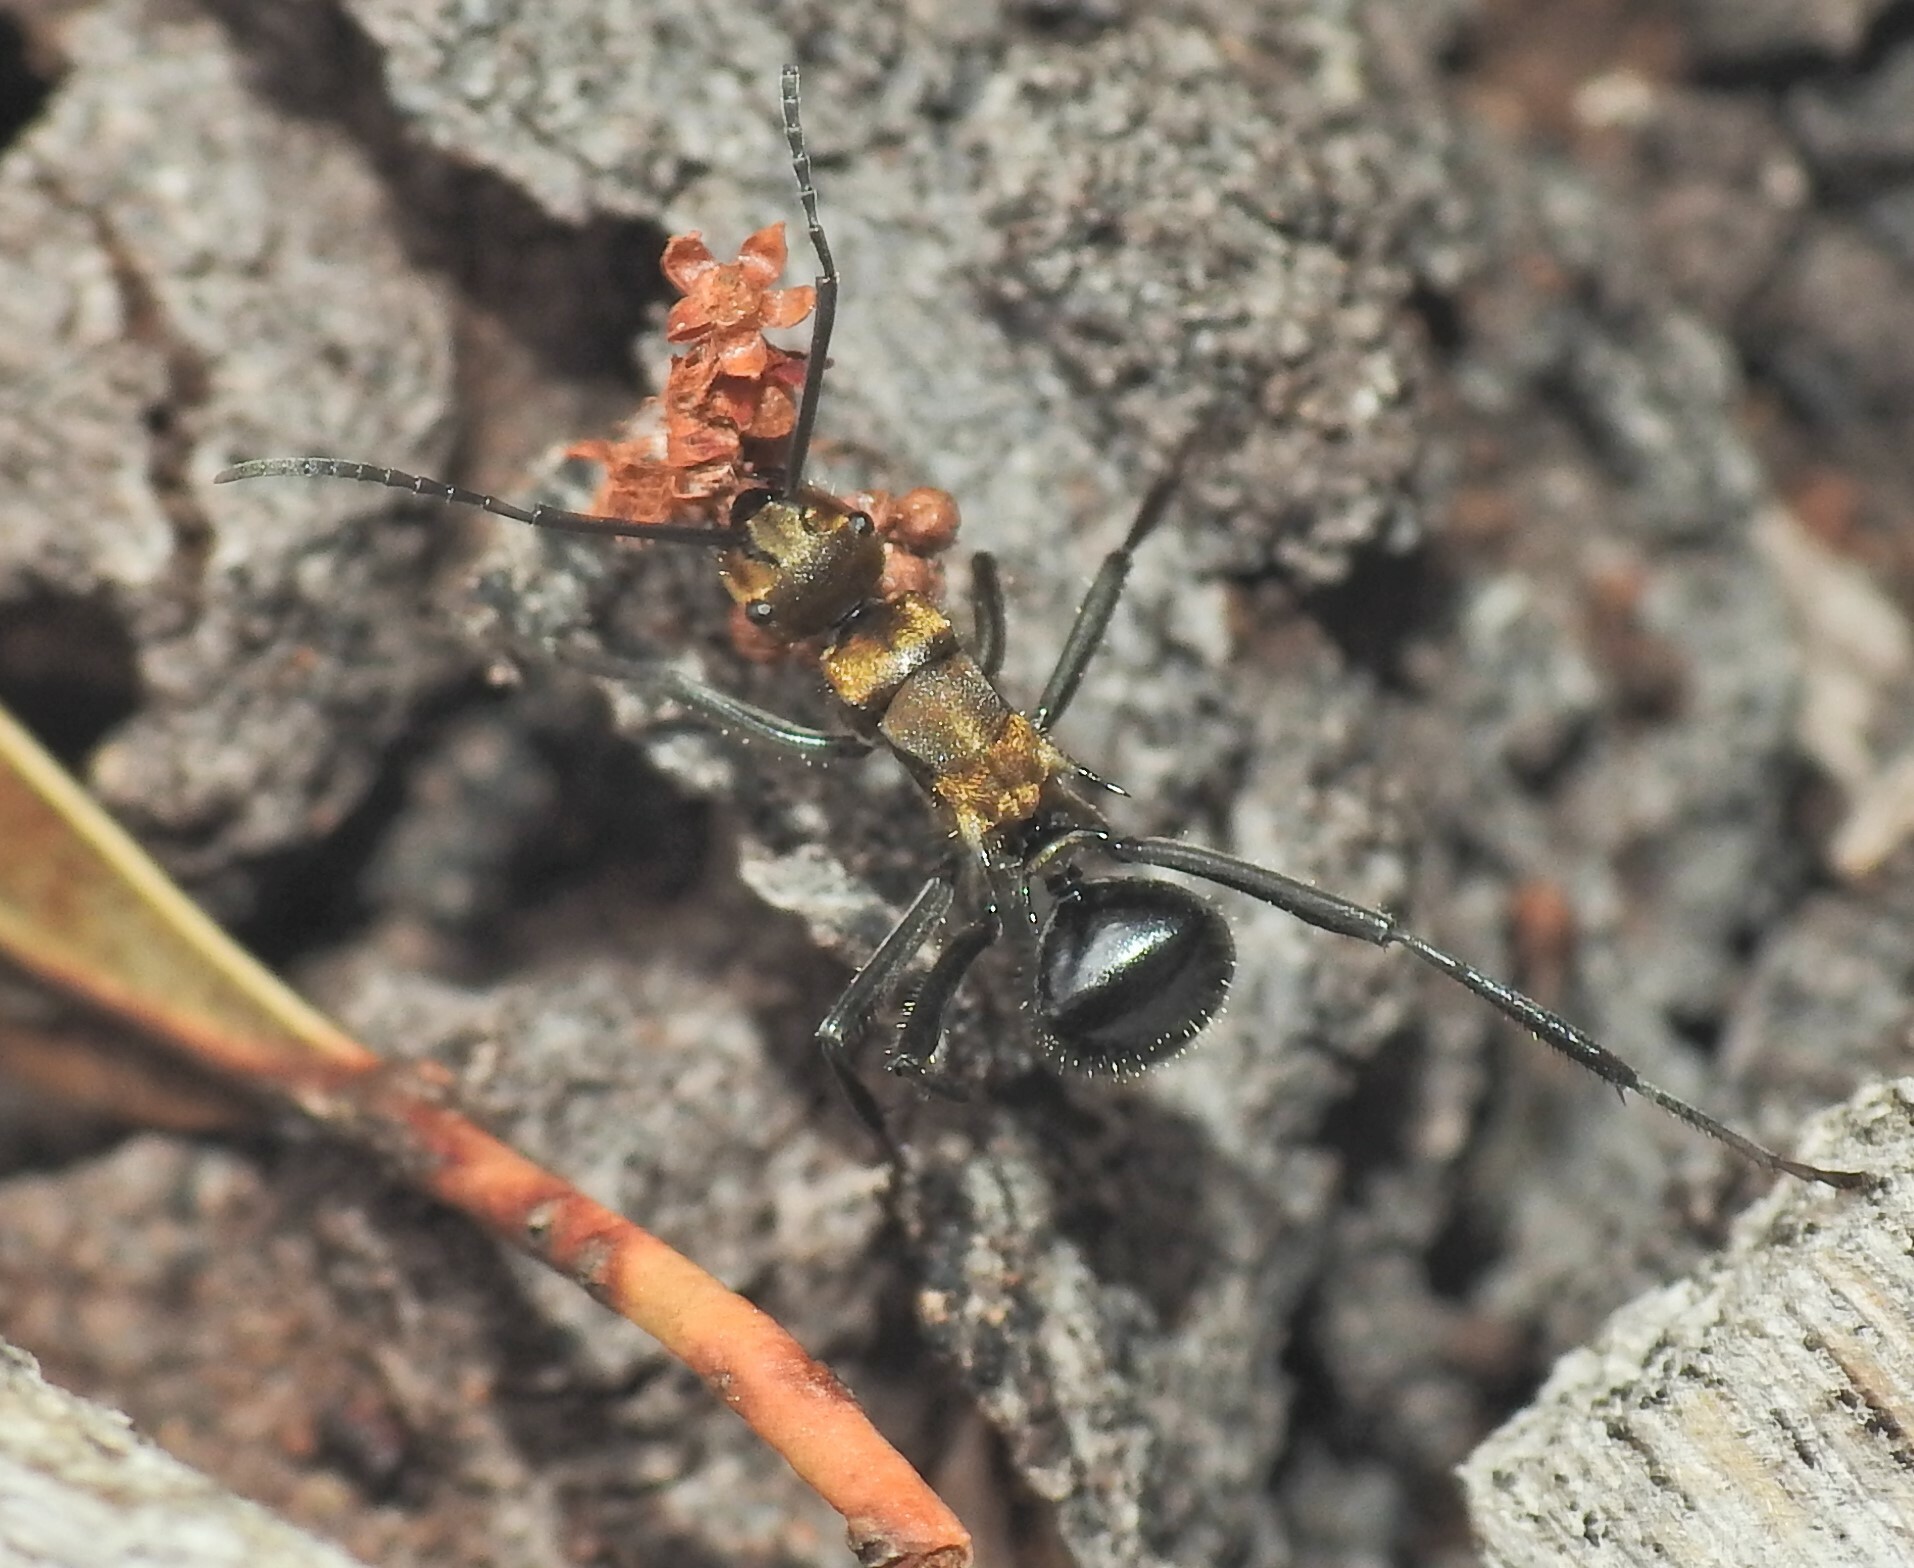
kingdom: Animalia
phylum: Arthropoda
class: Insecta
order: Hymenoptera
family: Formicidae
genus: Polyrhachis
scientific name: Polyrhachis semiaurata
